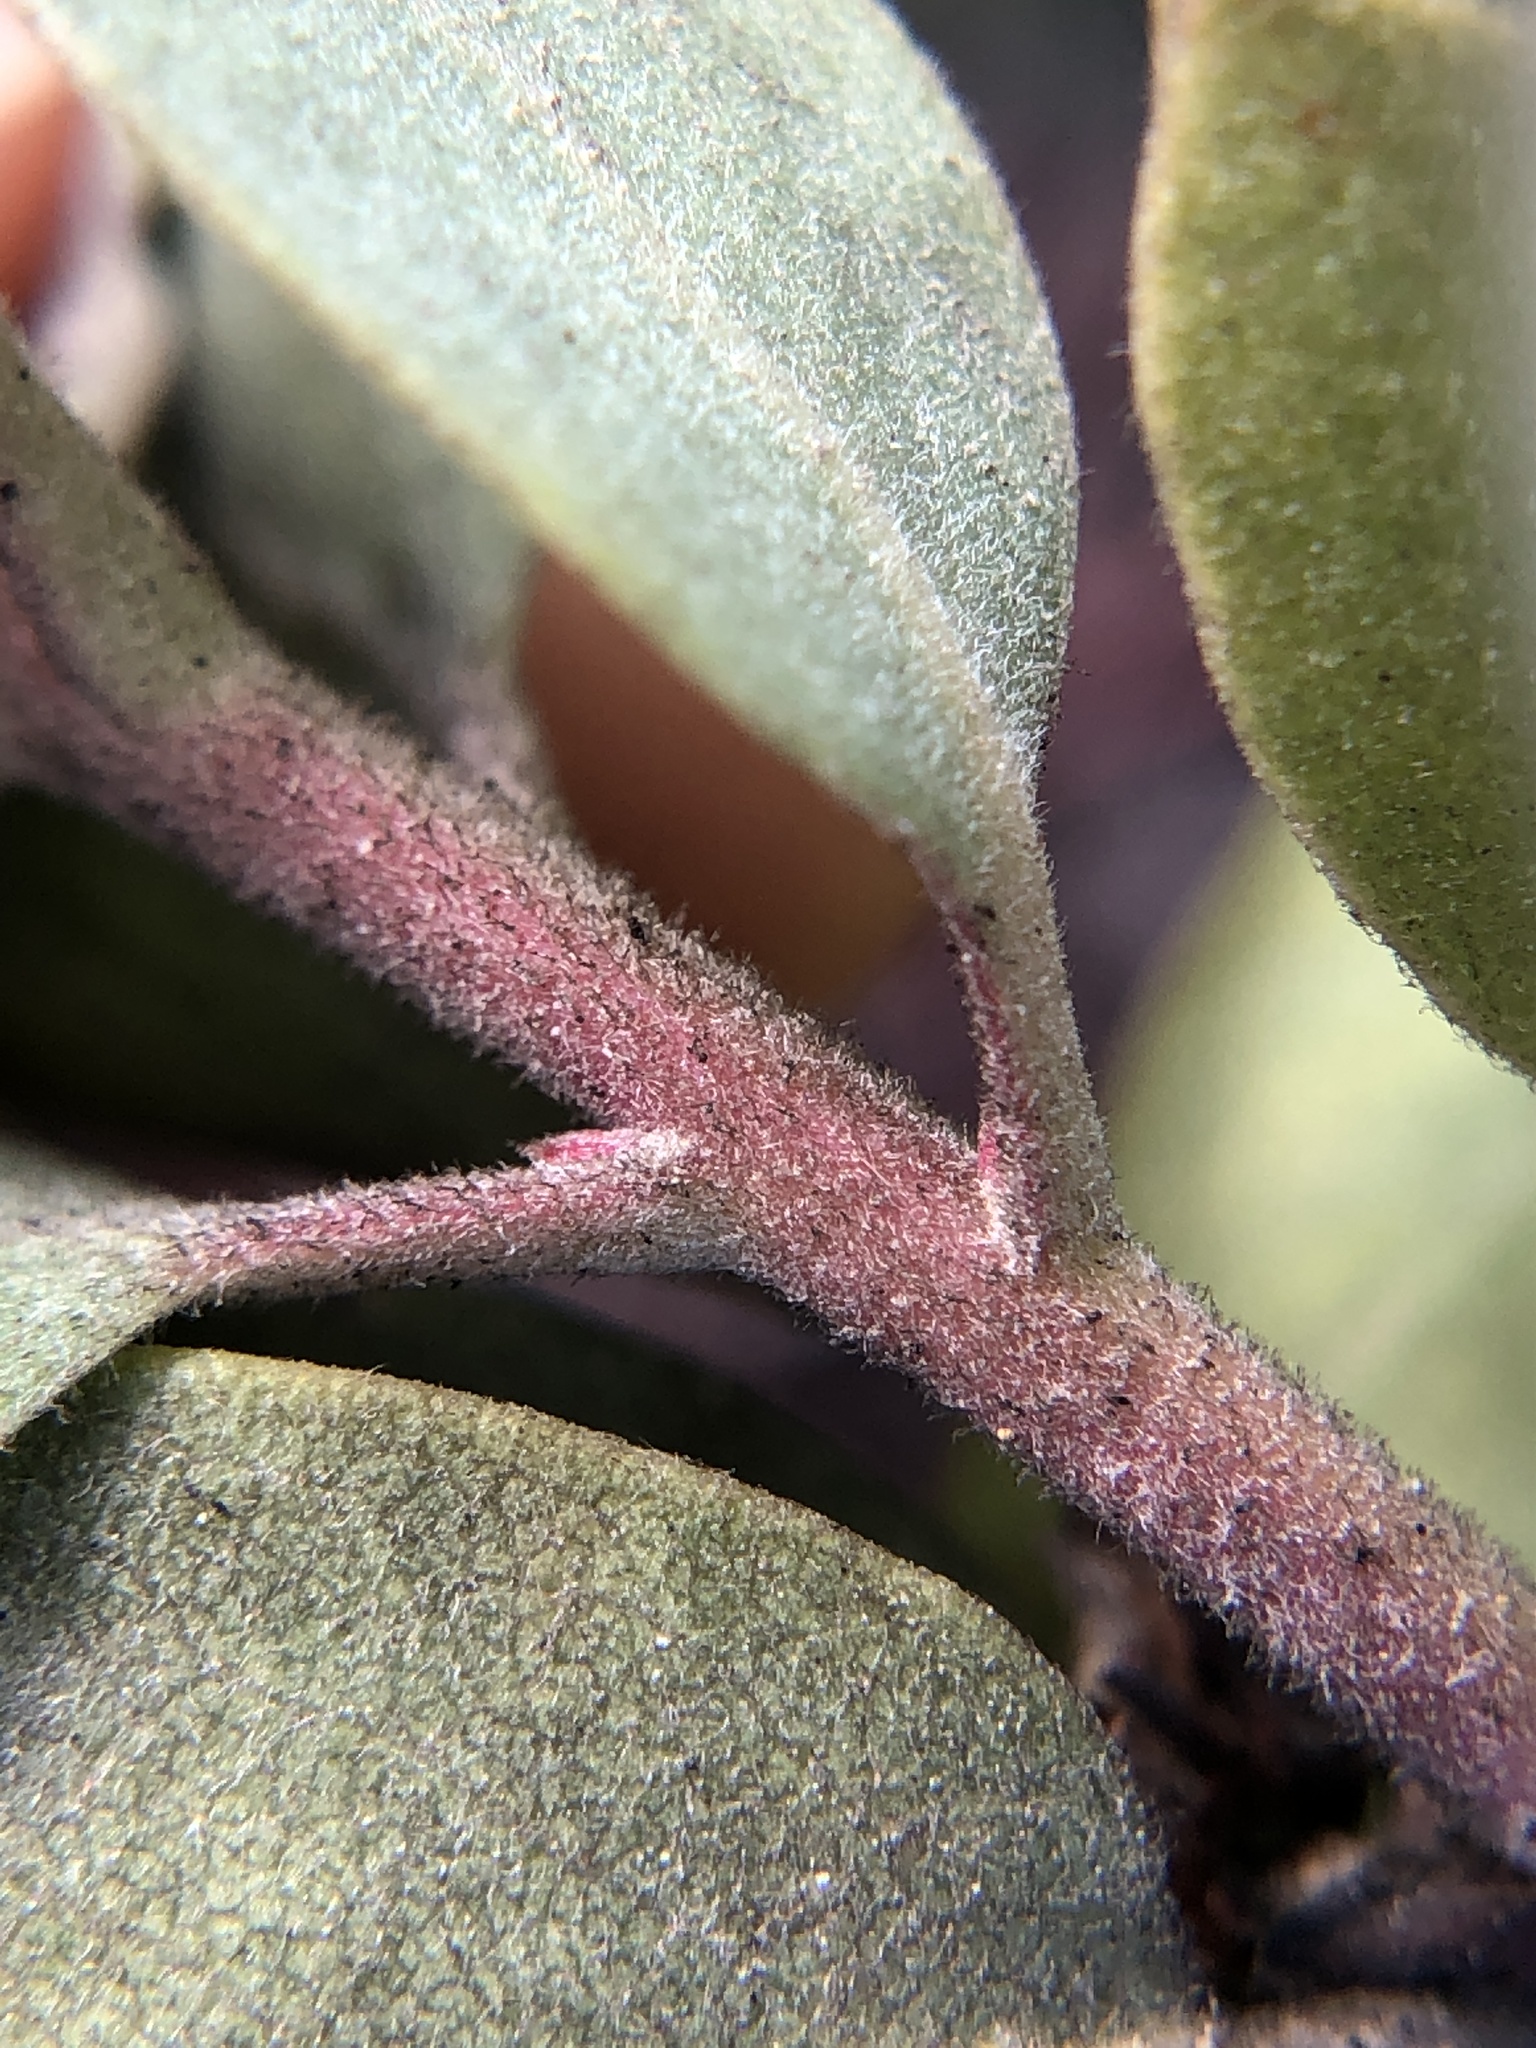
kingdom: Plantae
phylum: Tracheophyta
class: Magnoliopsida
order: Ericales
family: Ericaceae
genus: Arctostaphylos
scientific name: Arctostaphylos glandulosa
